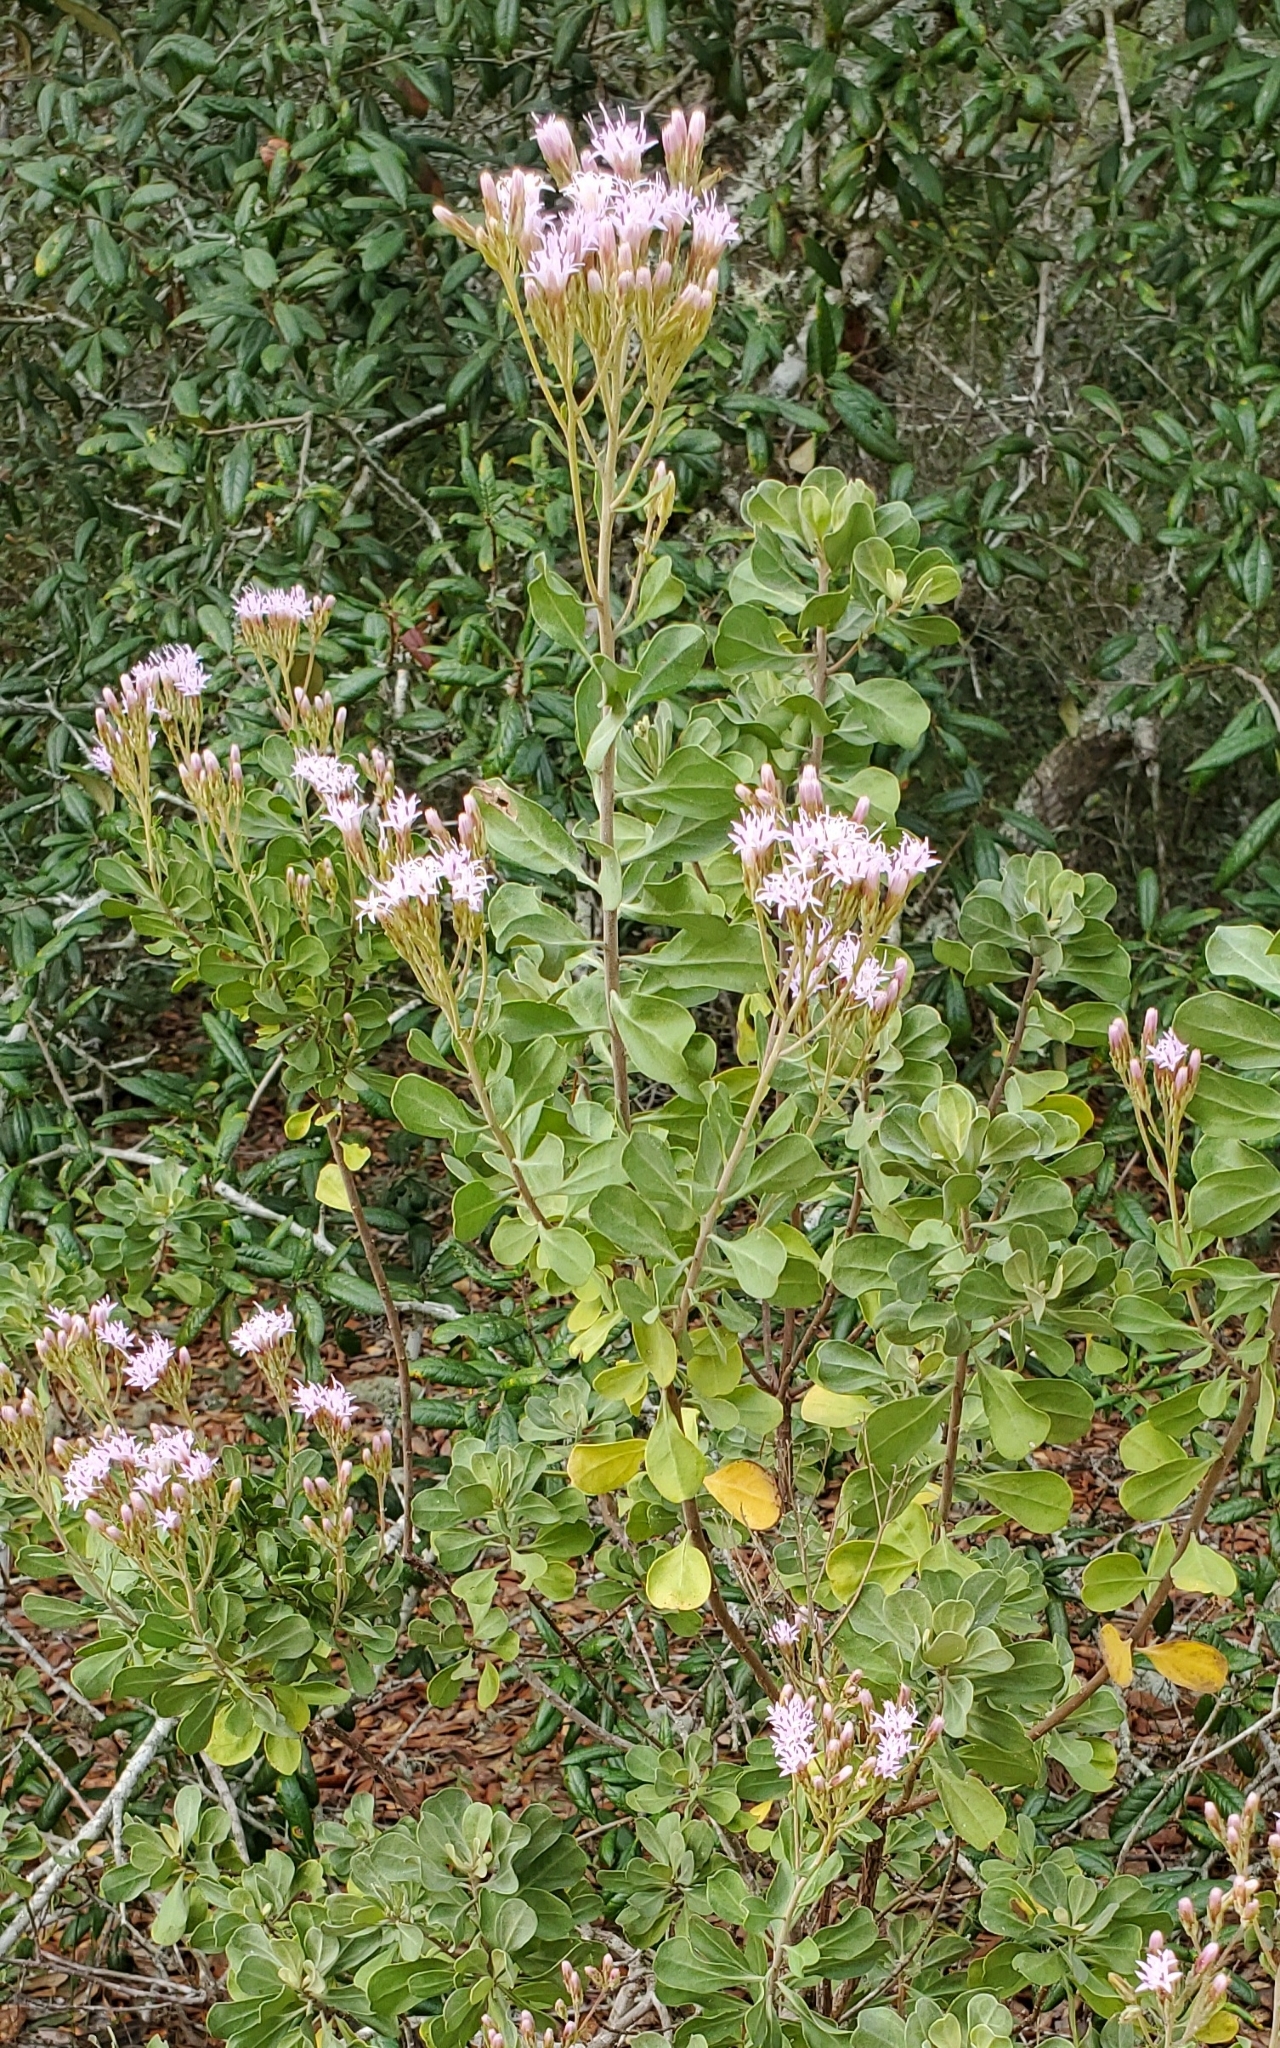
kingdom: Plantae
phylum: Tracheophyta
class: Magnoliopsida
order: Asterales
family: Asteraceae
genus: Garberia
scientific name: Garberia heterophylla
